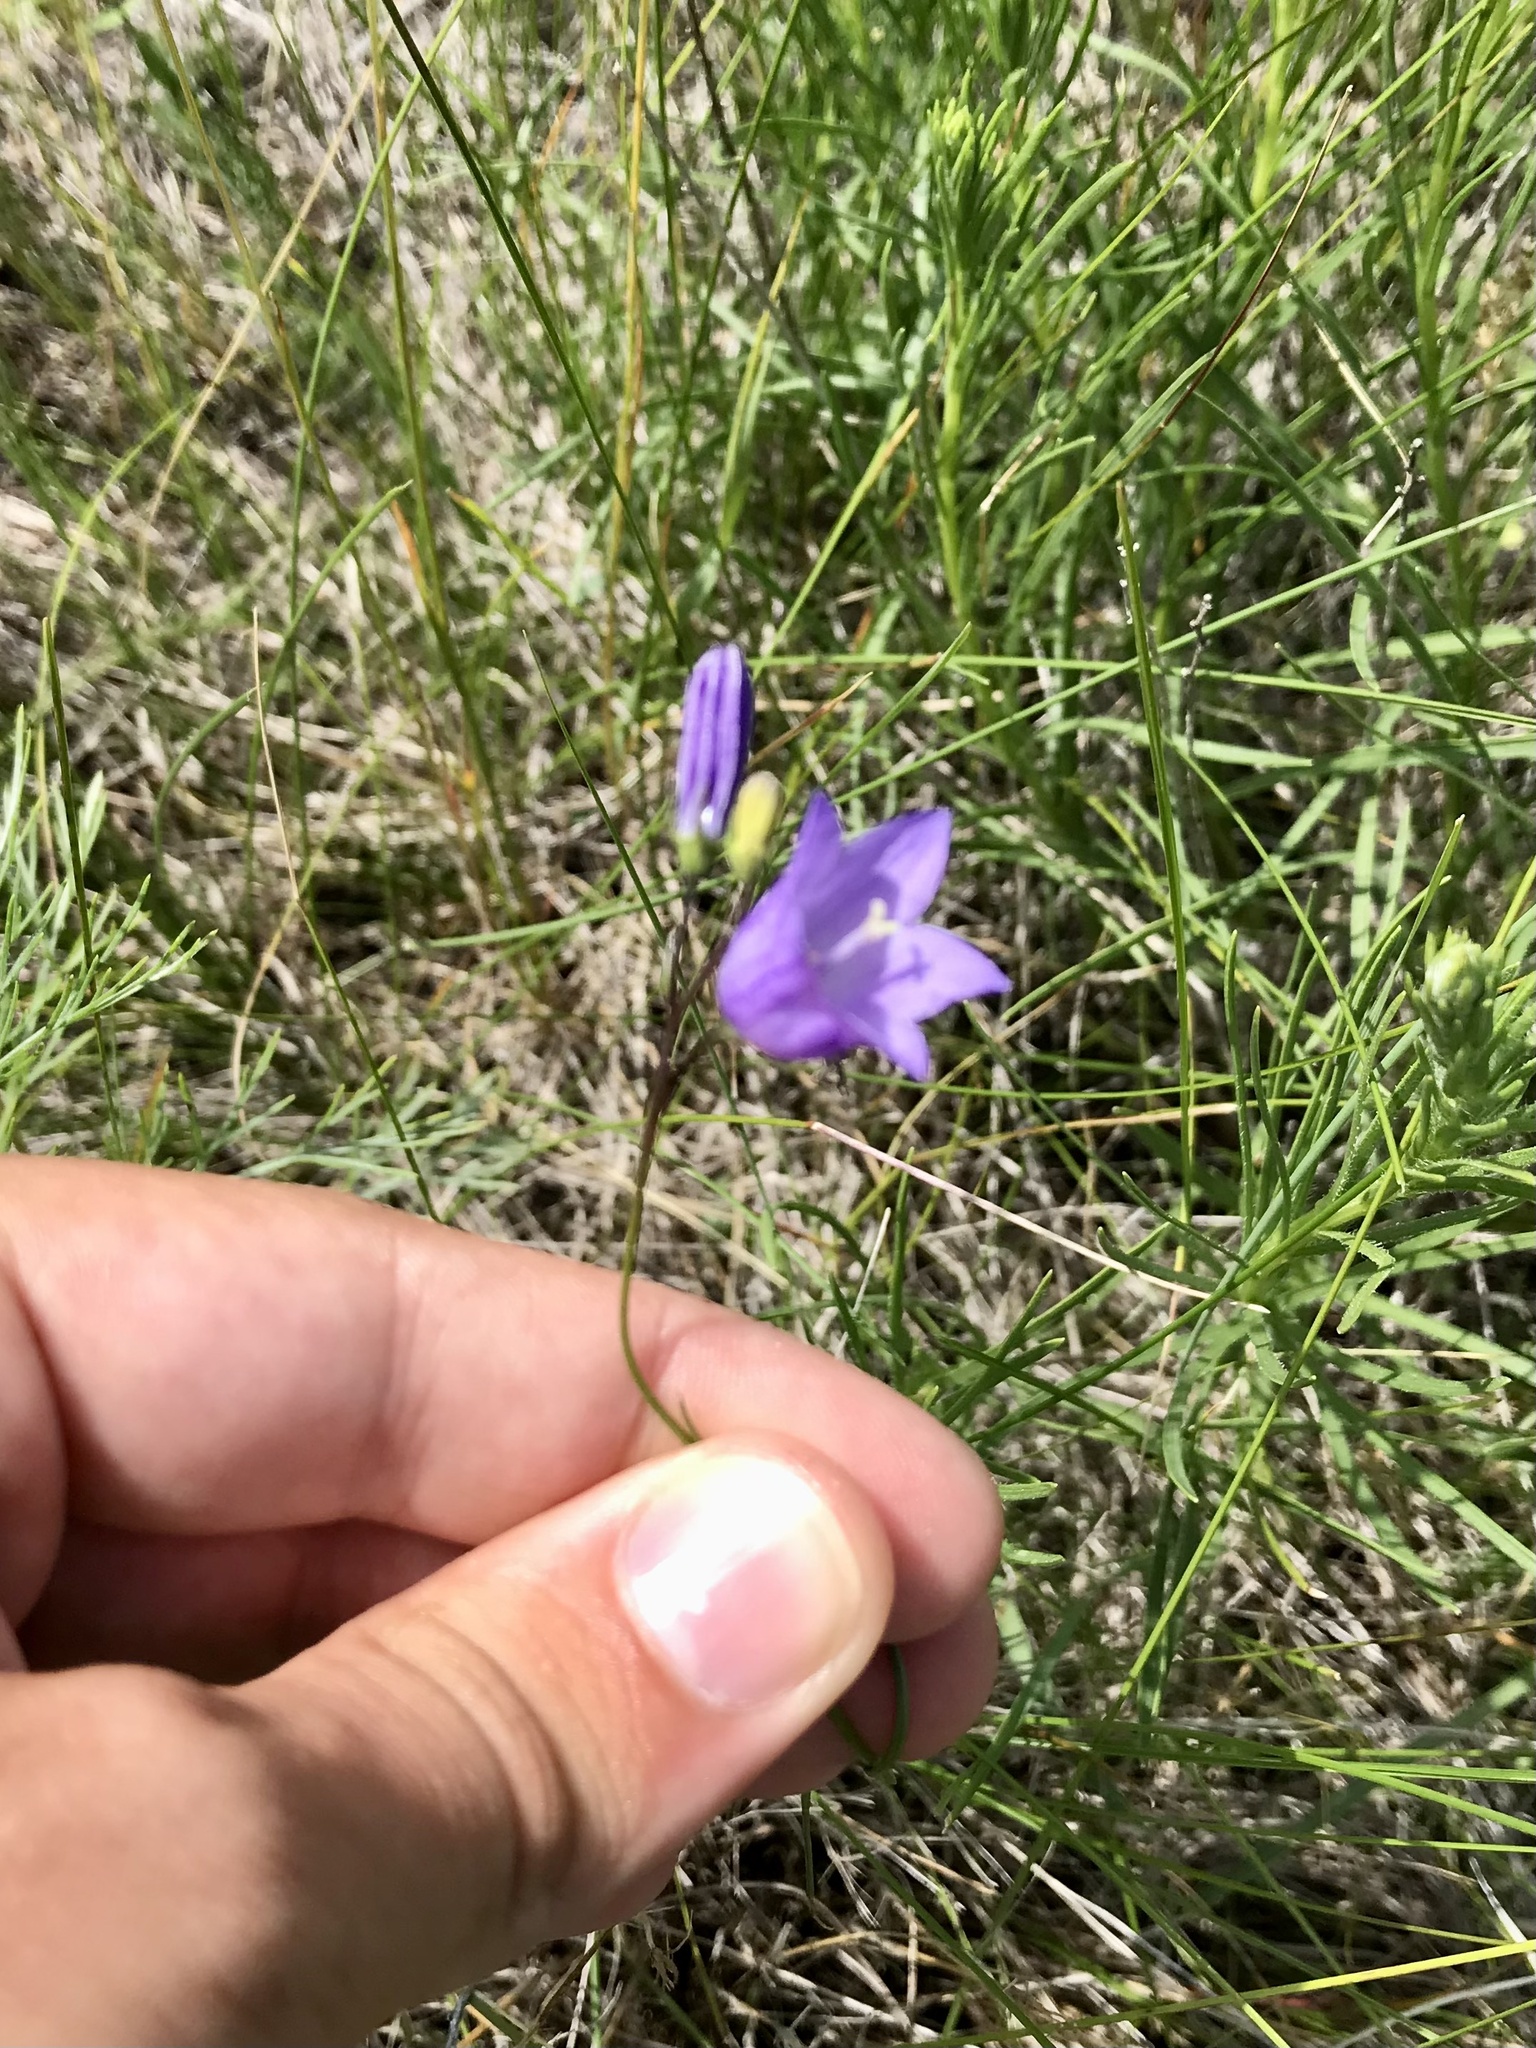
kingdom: Plantae
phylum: Tracheophyta
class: Magnoliopsida
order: Asterales
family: Campanulaceae
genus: Campanula
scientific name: Campanula intercedens
